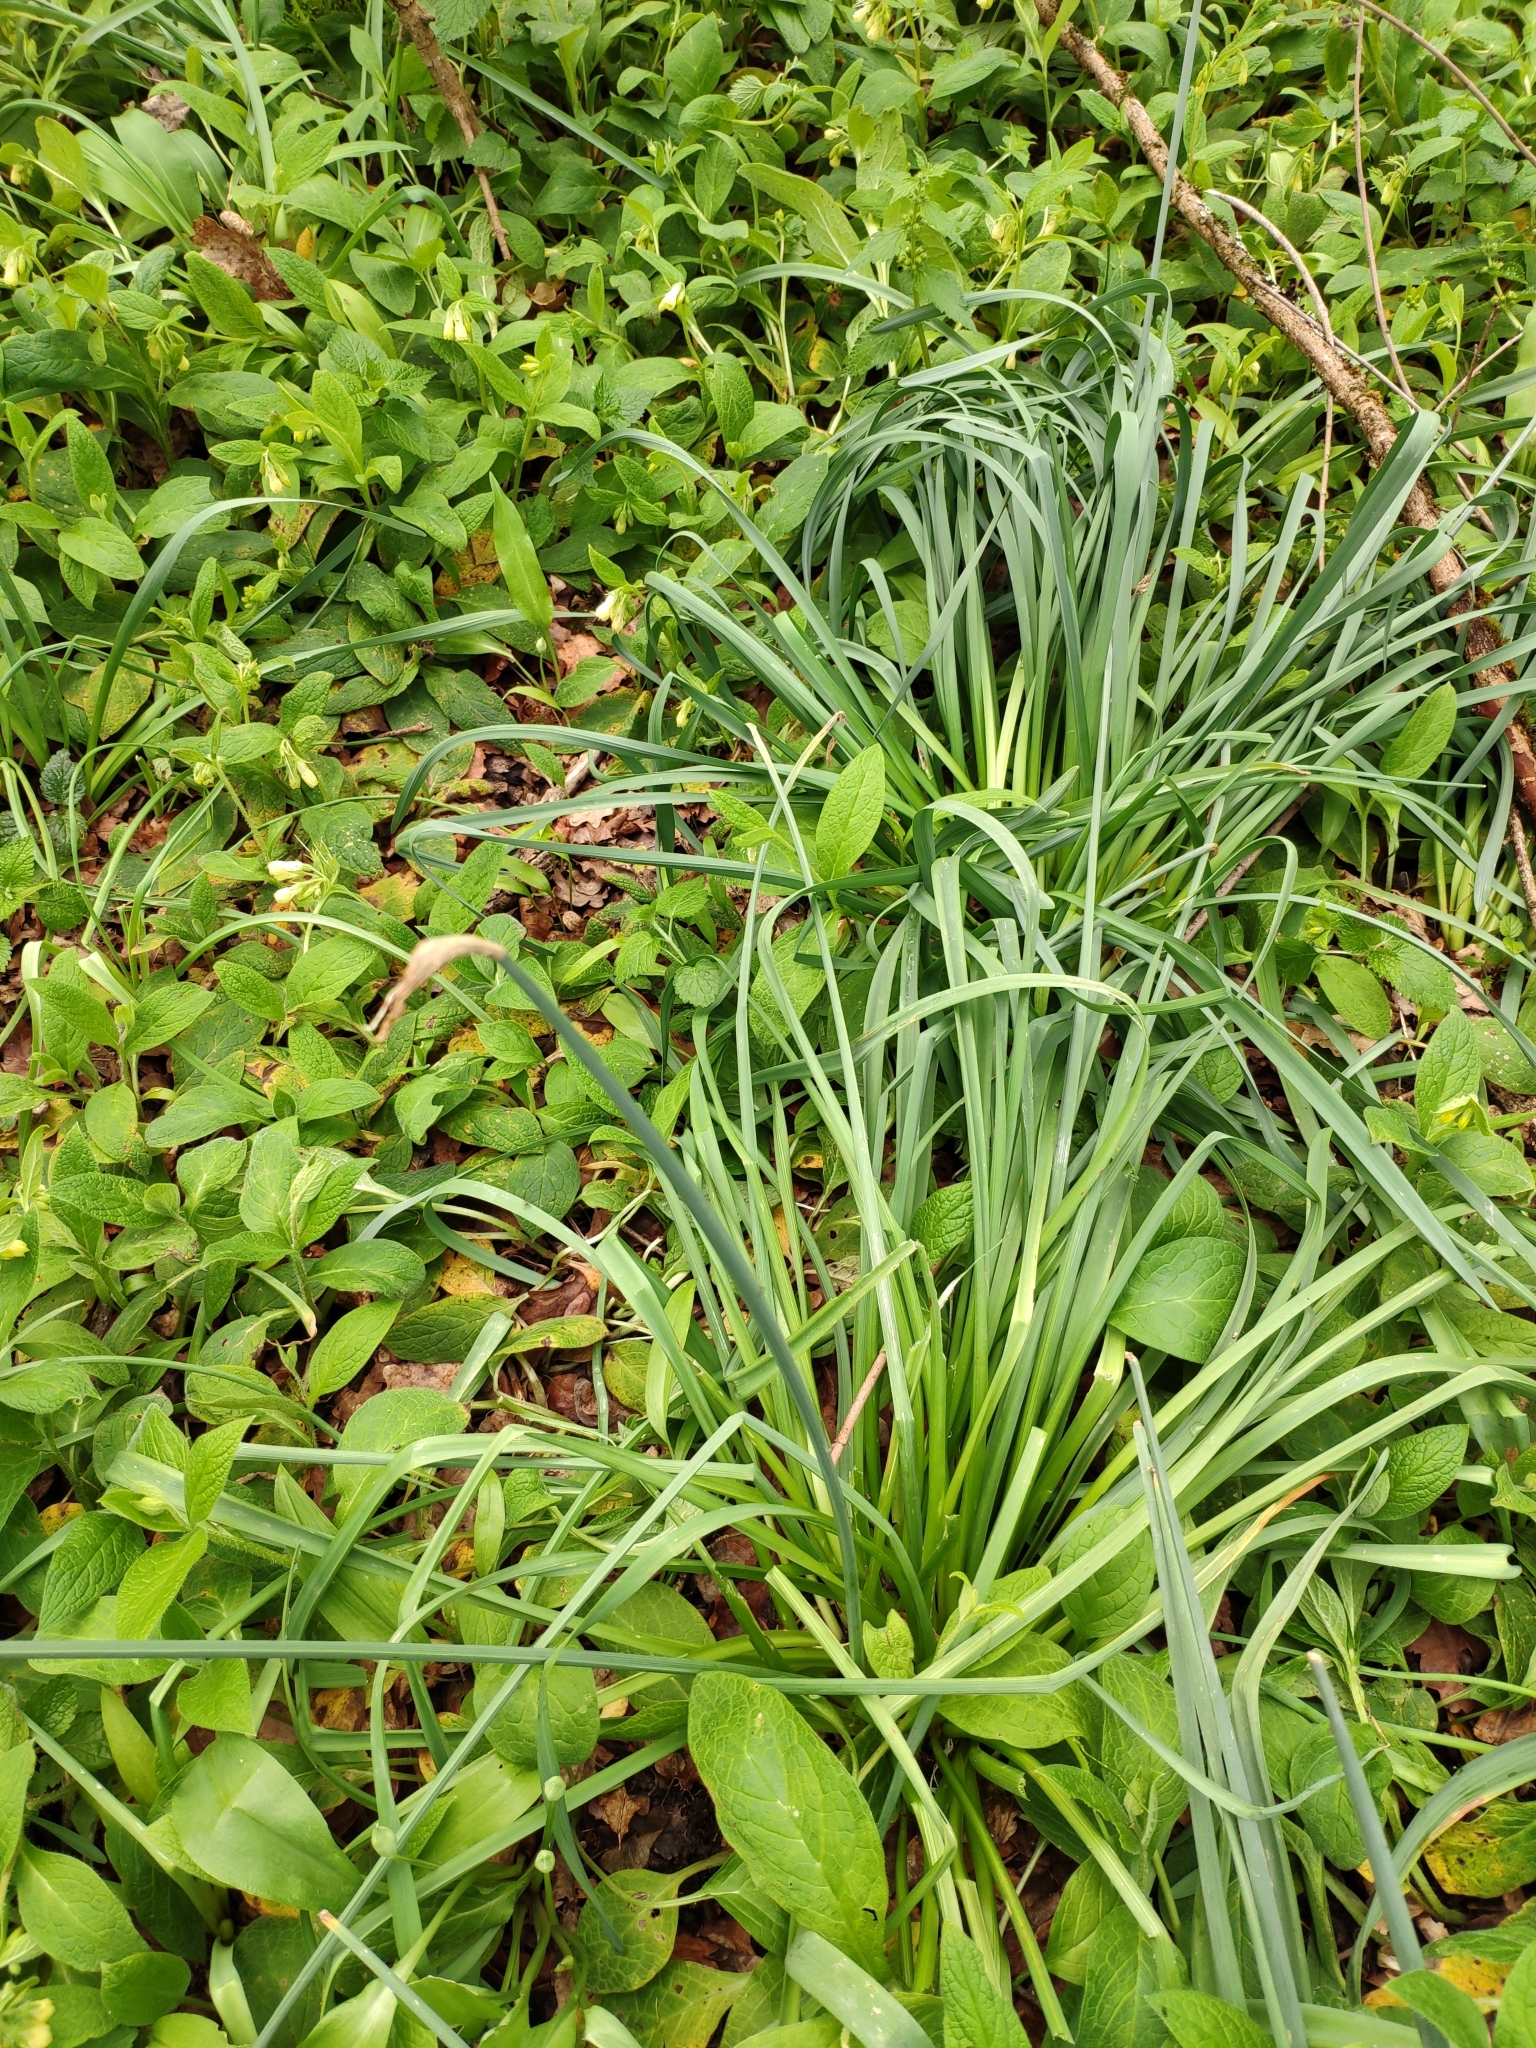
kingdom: Plantae
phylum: Tracheophyta
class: Liliopsida
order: Asparagales
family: Amaryllidaceae
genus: Narcissus
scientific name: Narcissus pseudonarcissus
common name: Daffodil
